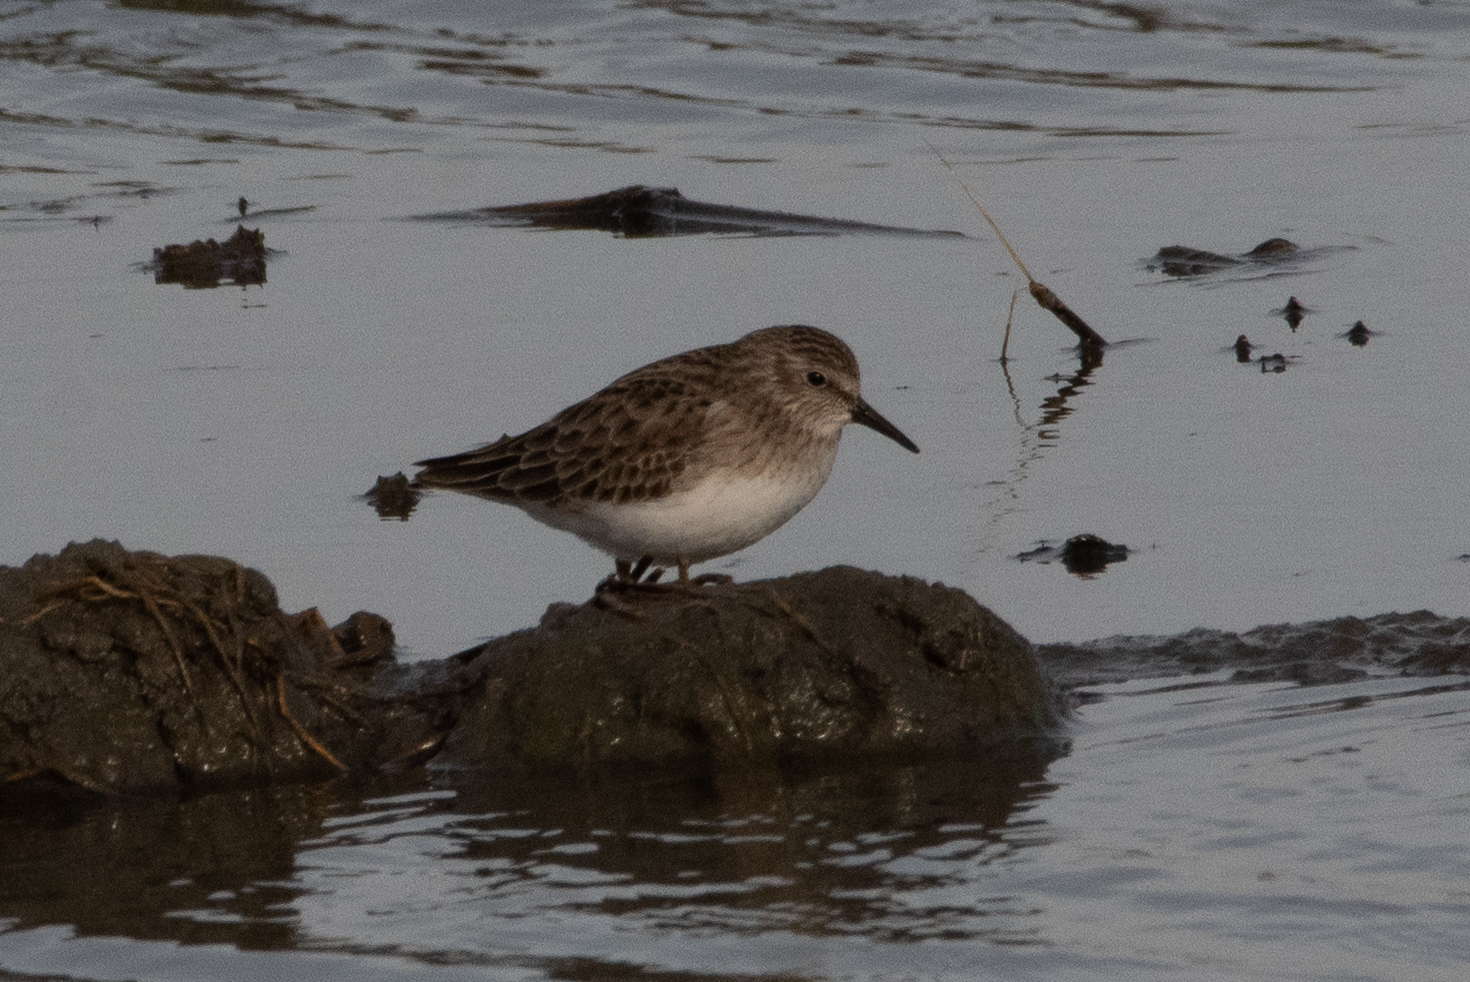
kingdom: Animalia
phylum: Chordata
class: Aves
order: Charadriiformes
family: Scolopacidae
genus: Calidris
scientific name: Calidris minutilla
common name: Least sandpiper
